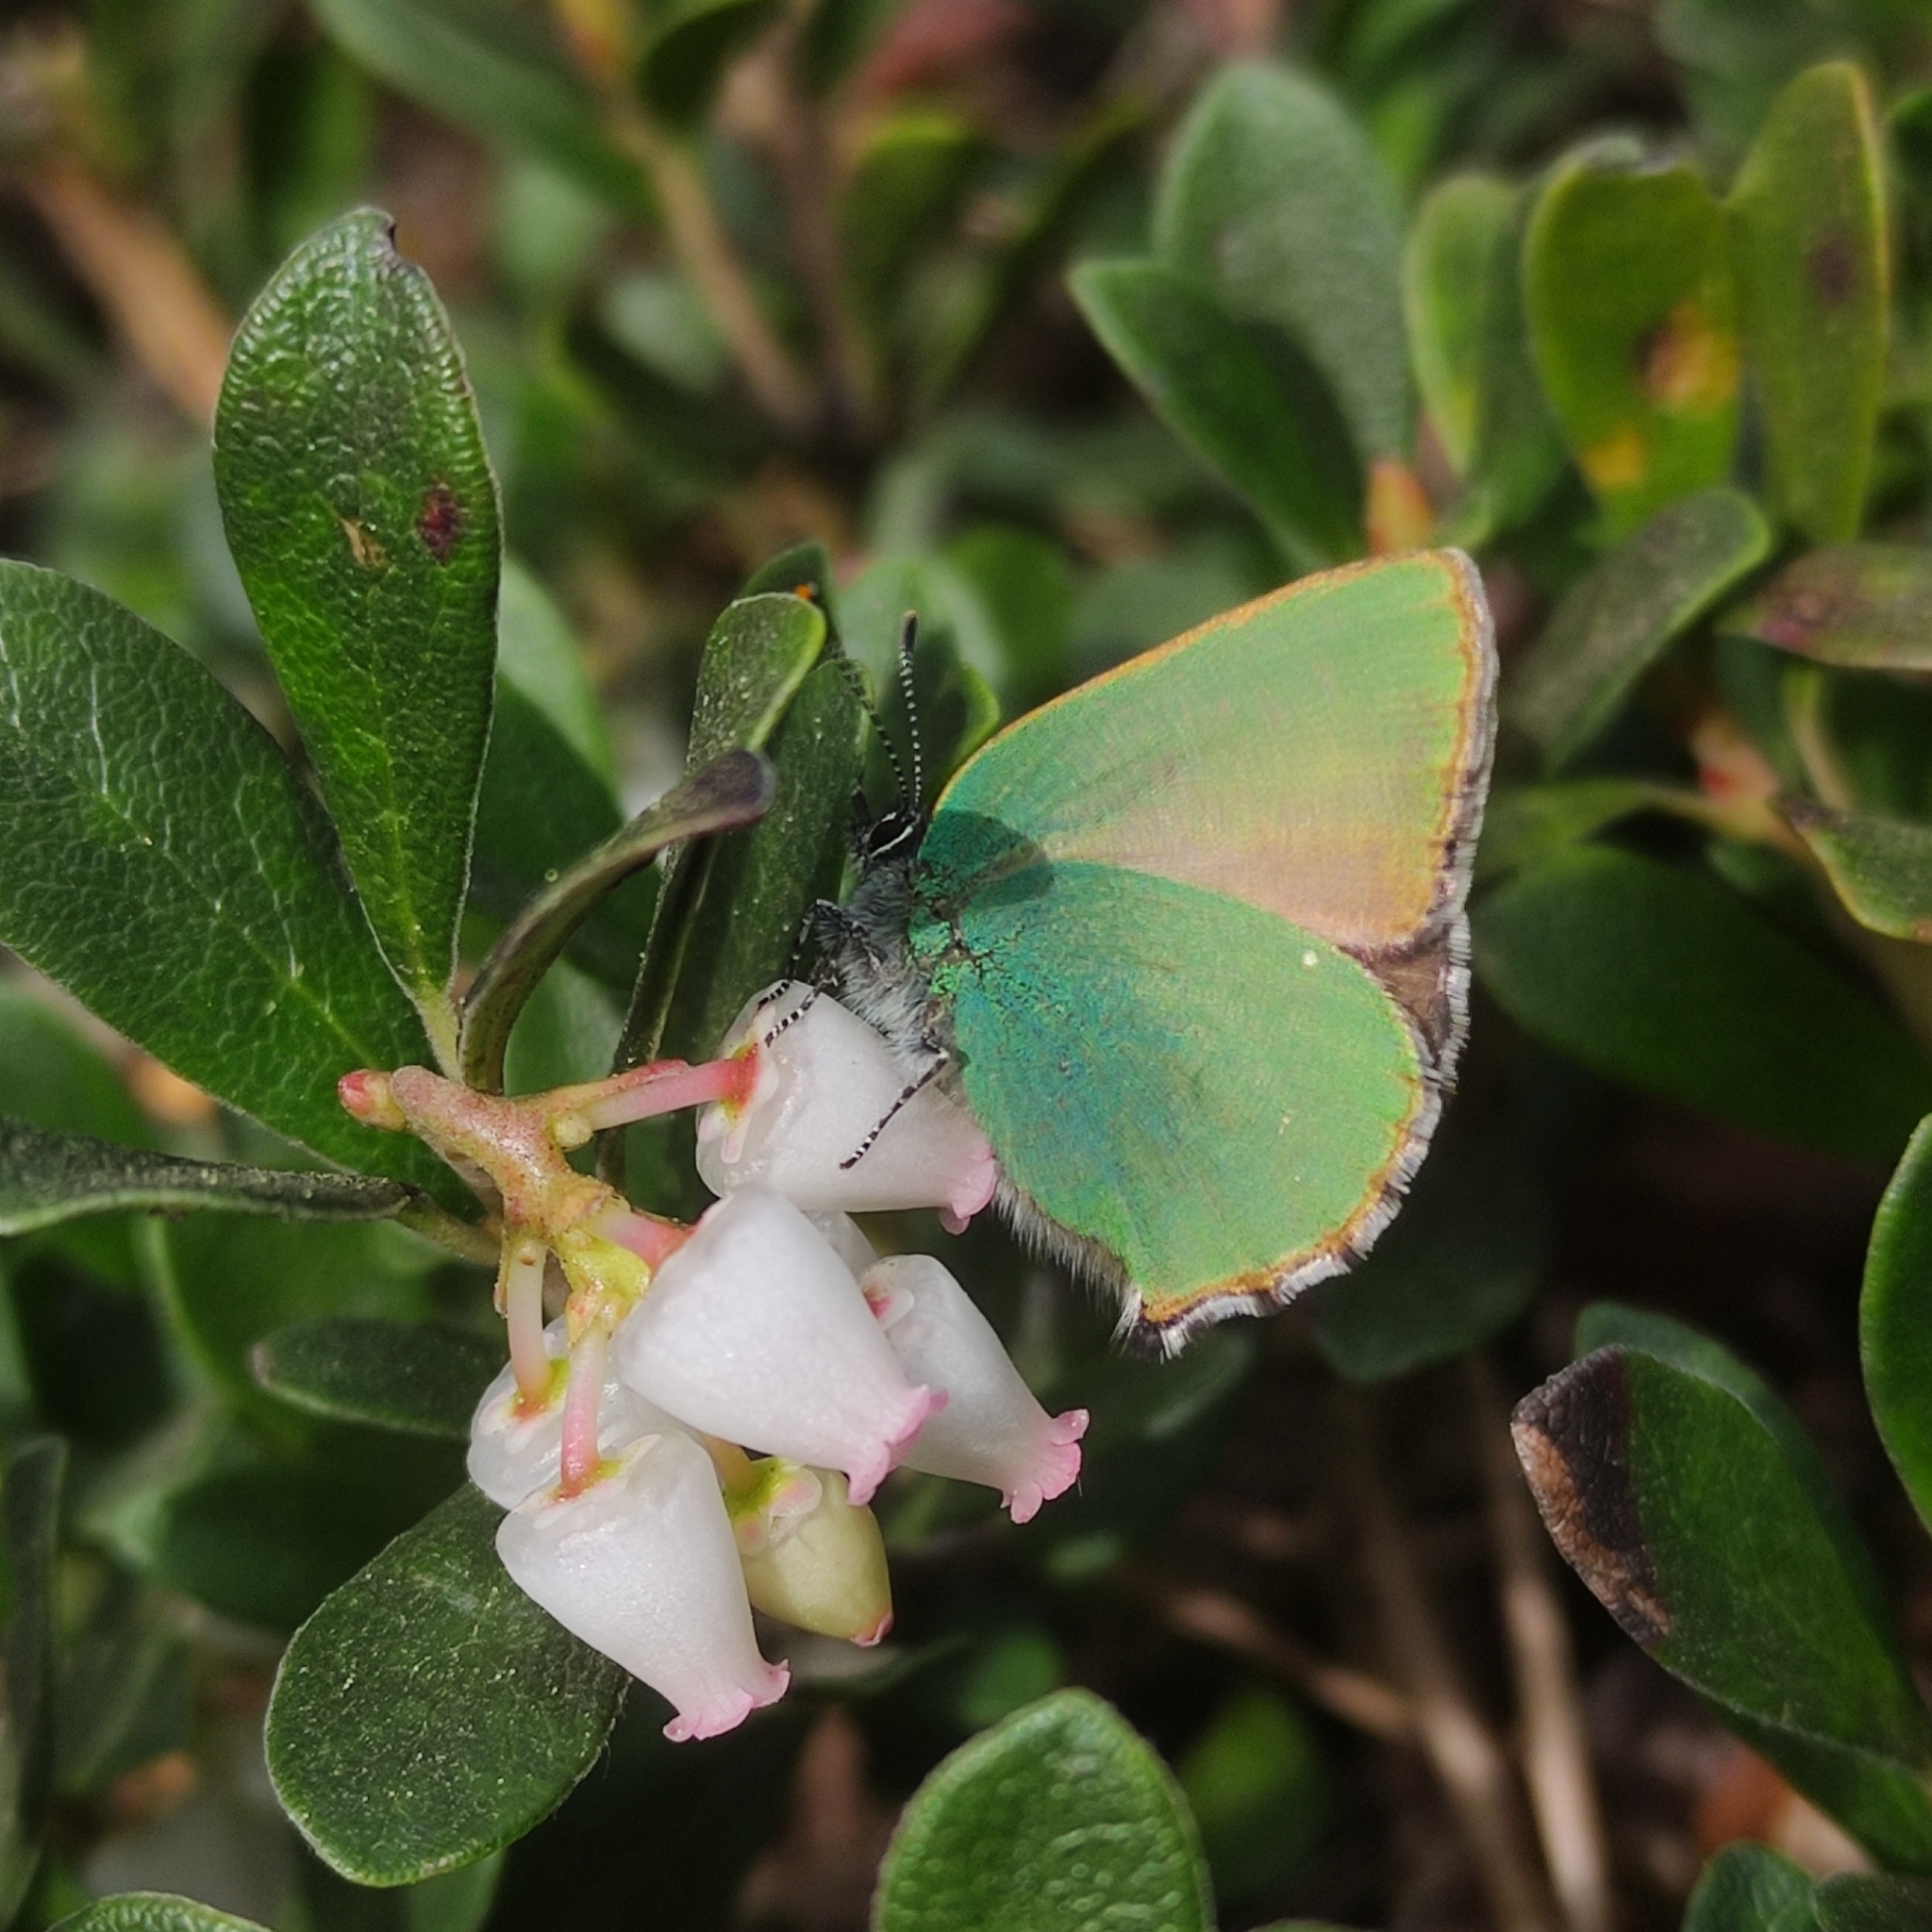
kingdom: Animalia
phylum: Arthropoda
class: Insecta
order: Lepidoptera
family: Lycaenidae
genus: Callophrys
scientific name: Callophrys rubi
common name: Green hairstreak
